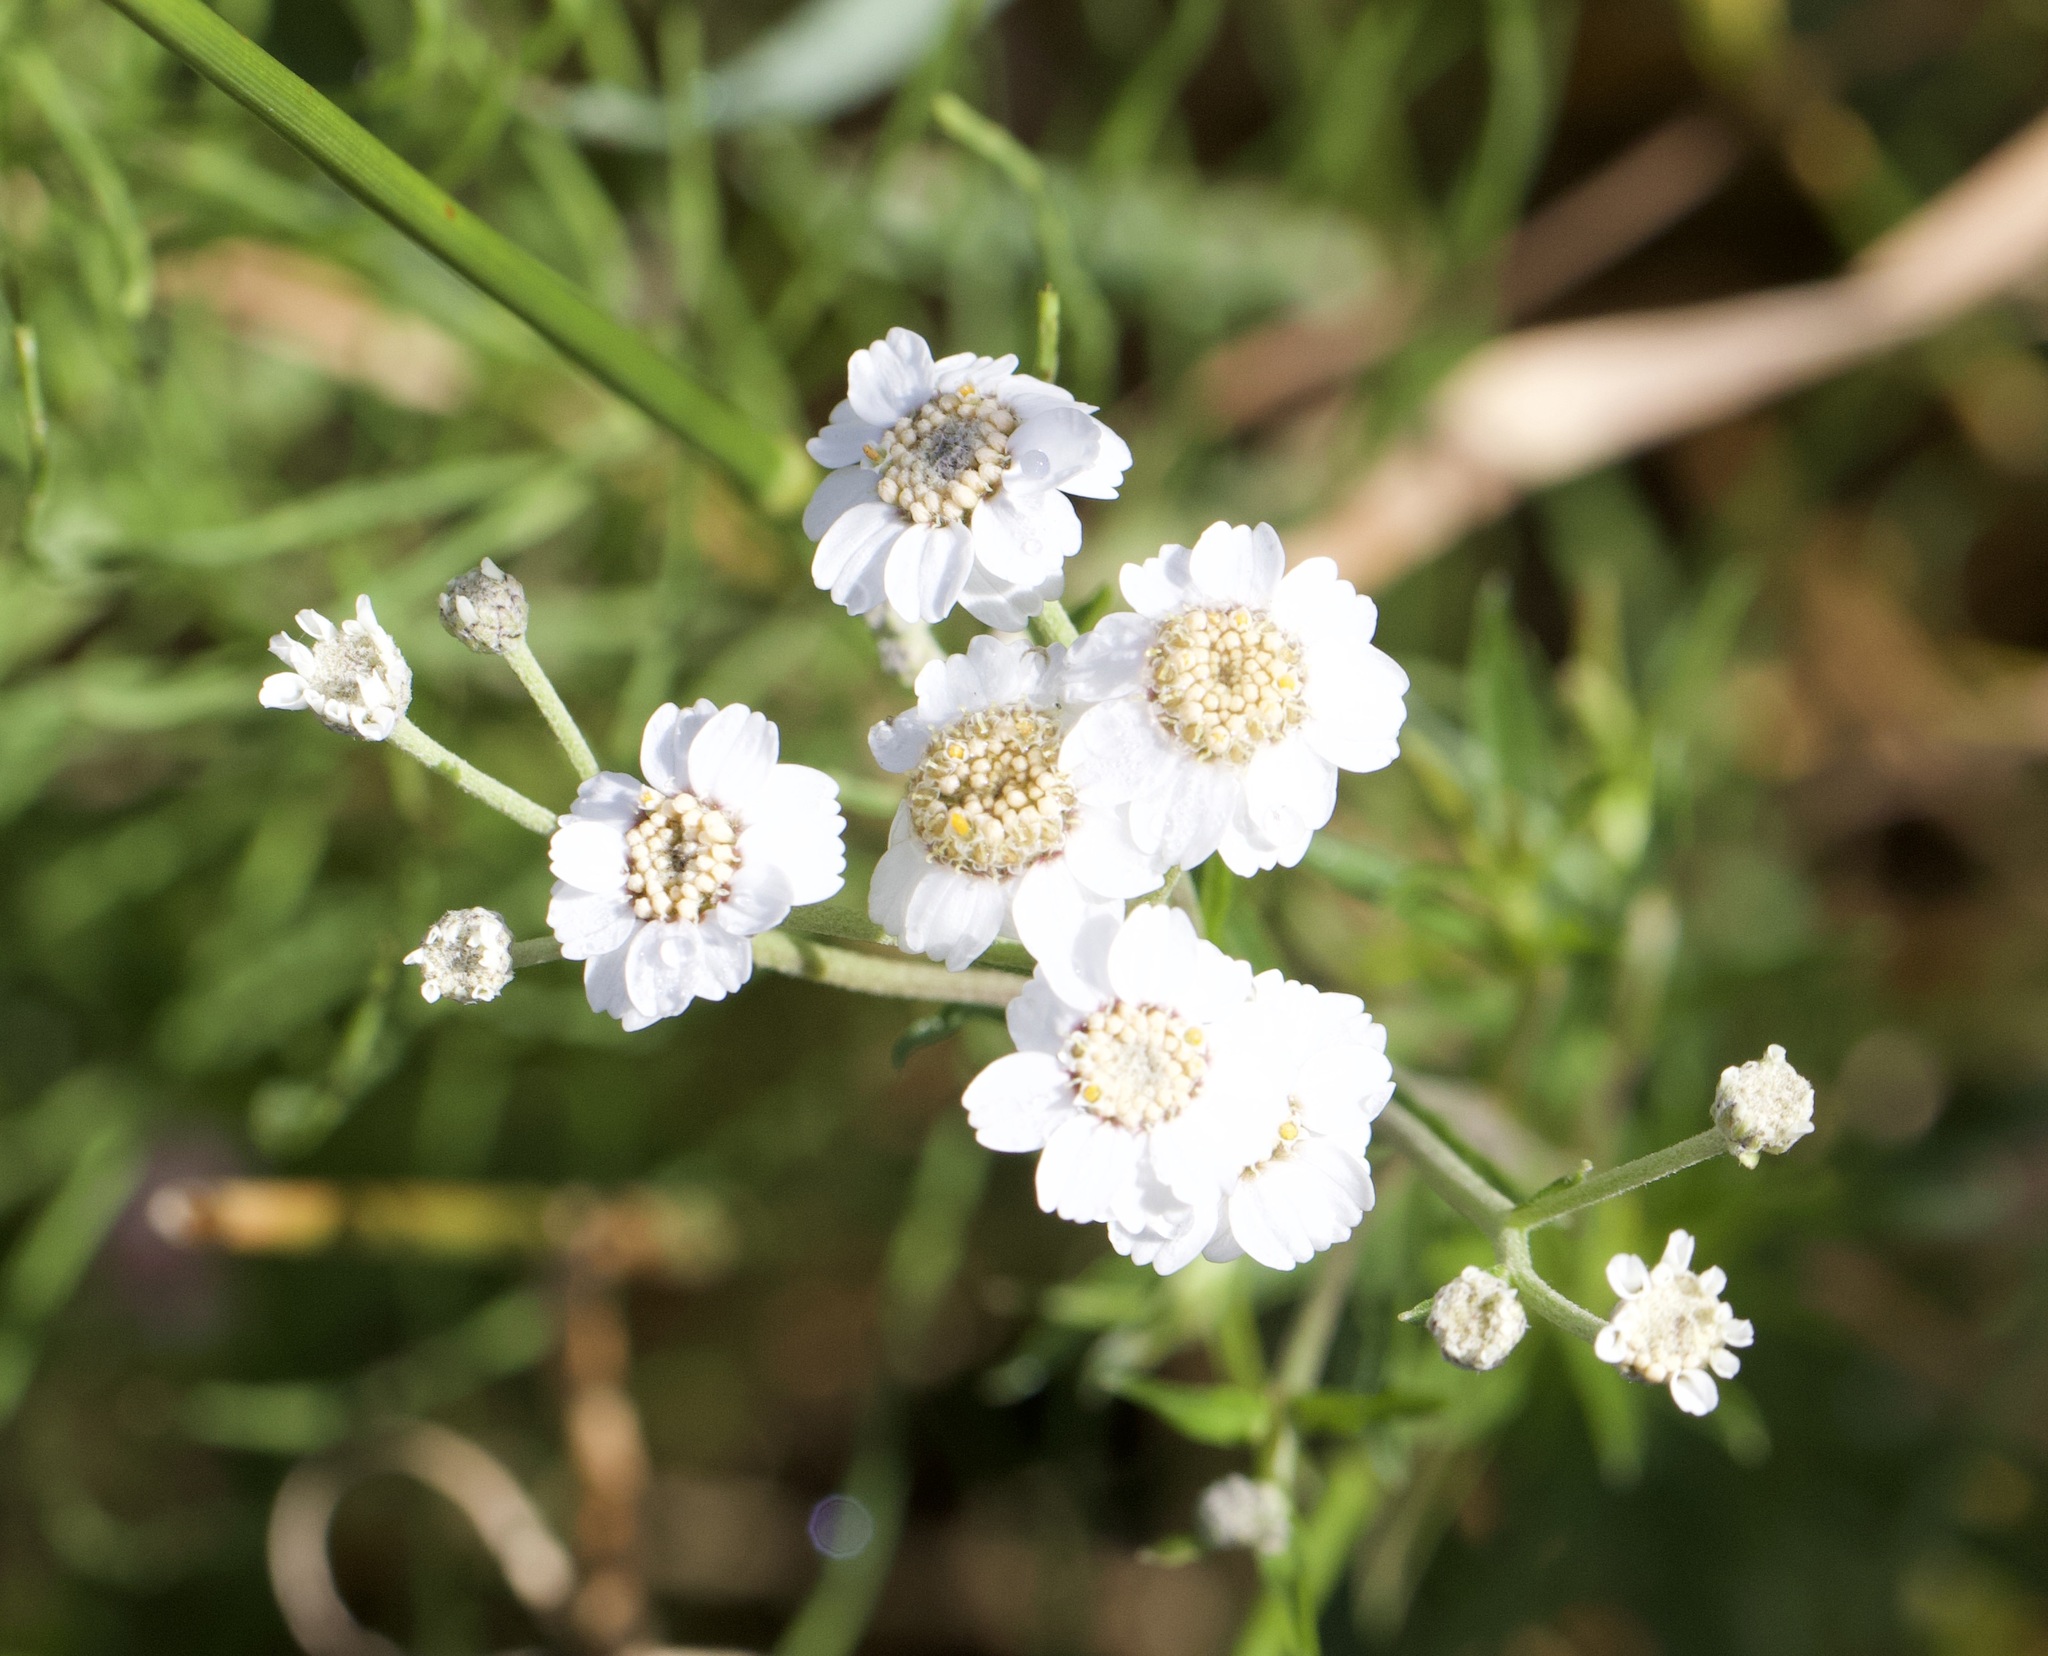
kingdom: Plantae
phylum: Tracheophyta
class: Magnoliopsida
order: Asterales
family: Asteraceae
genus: Achillea
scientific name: Achillea ptarmica
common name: Sneezeweed
